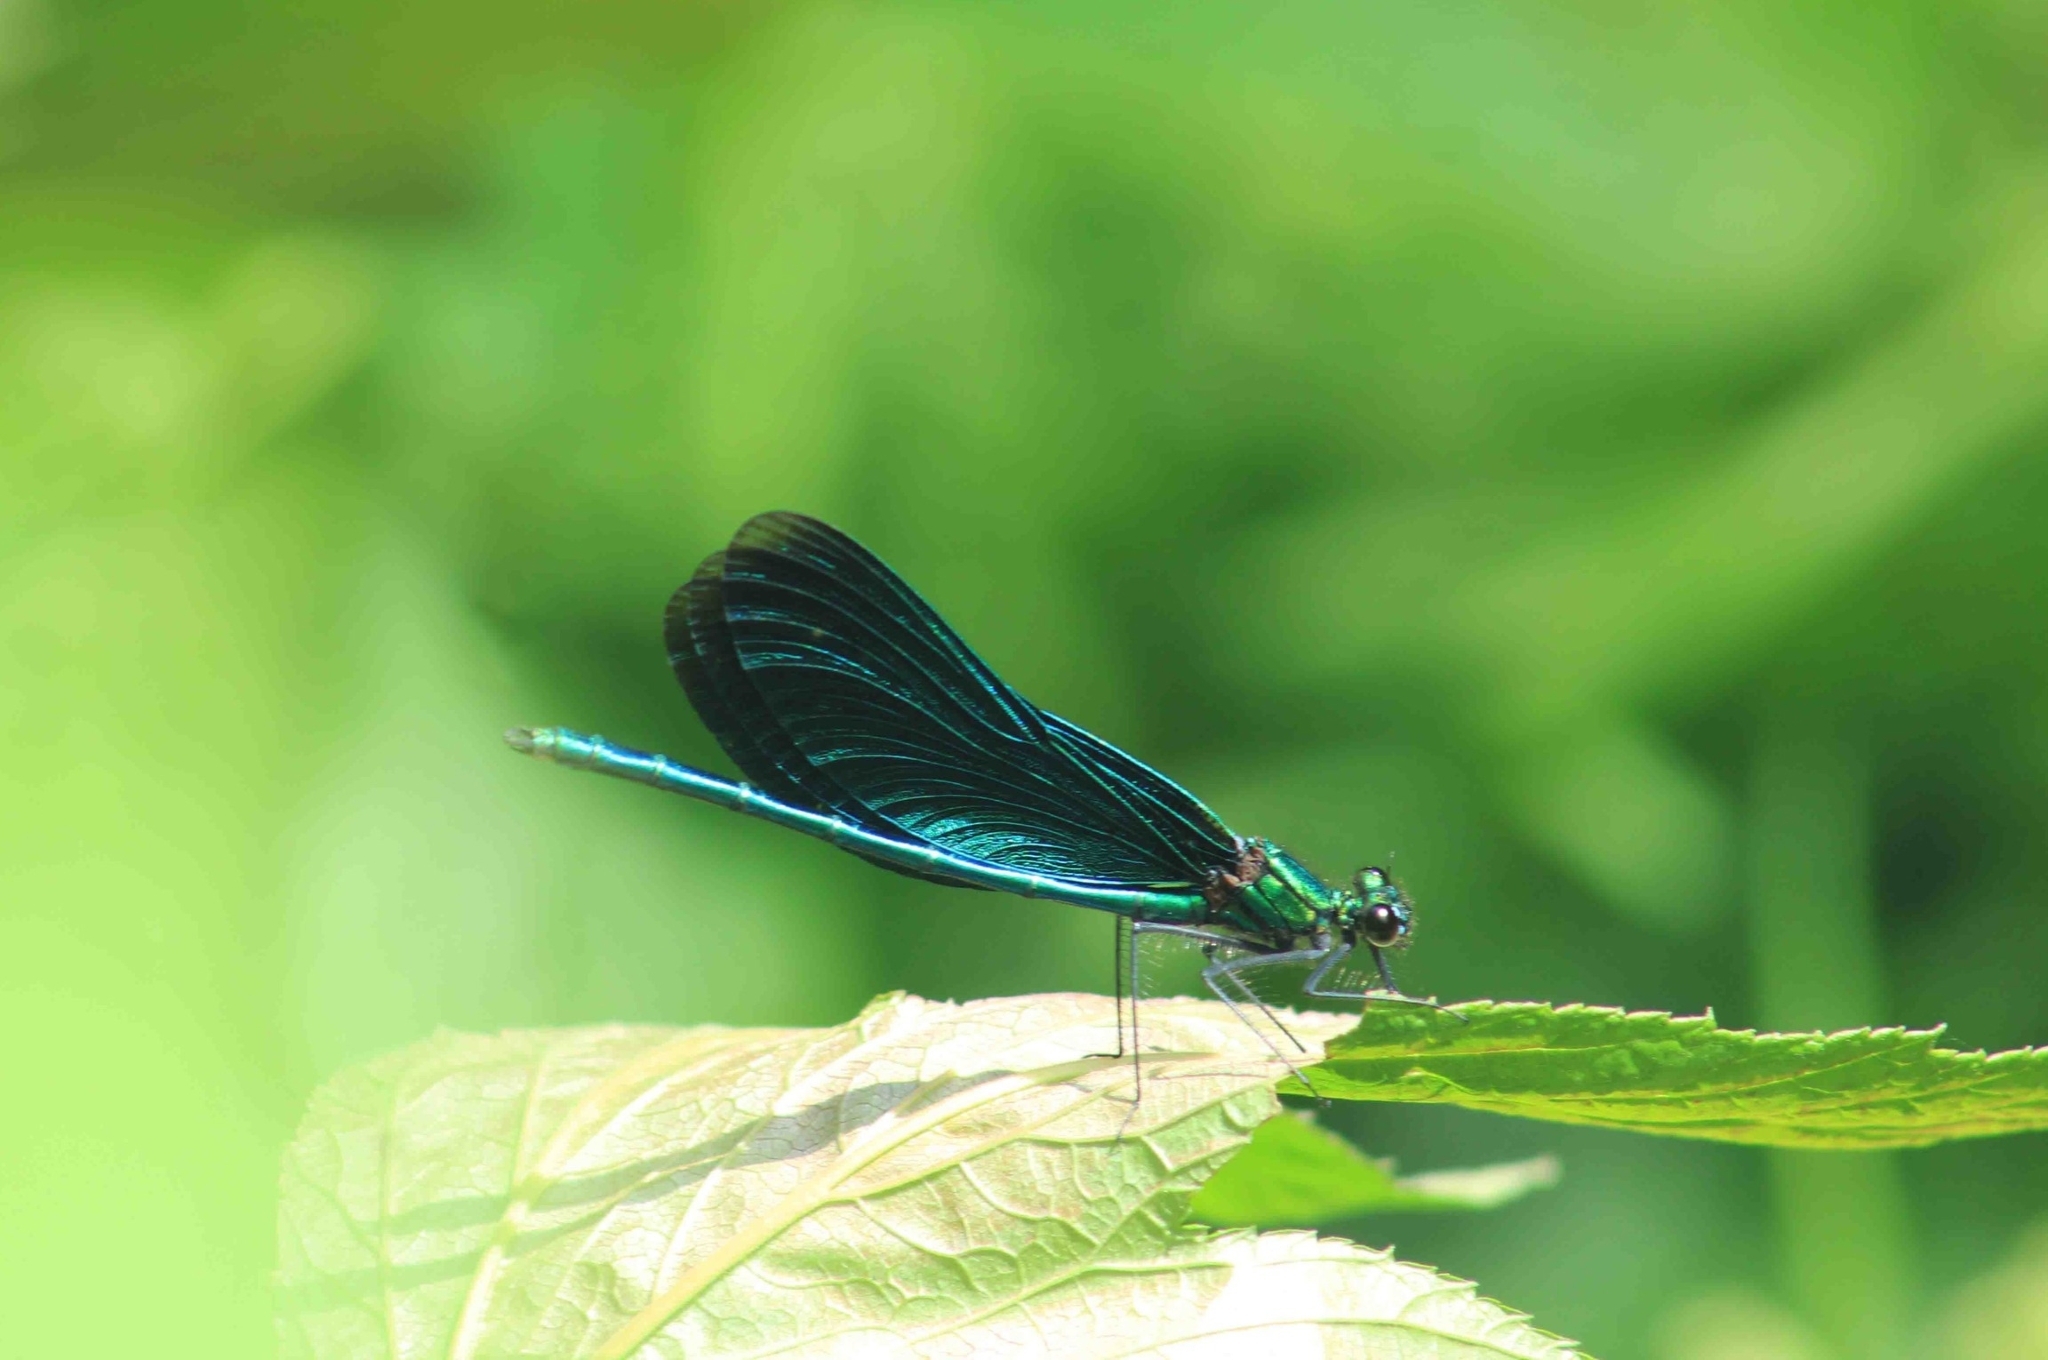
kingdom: Animalia
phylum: Arthropoda
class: Insecta
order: Odonata
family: Calopterygidae
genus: Calopteryx
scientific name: Calopteryx virgo
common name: Beautiful demoiselle
